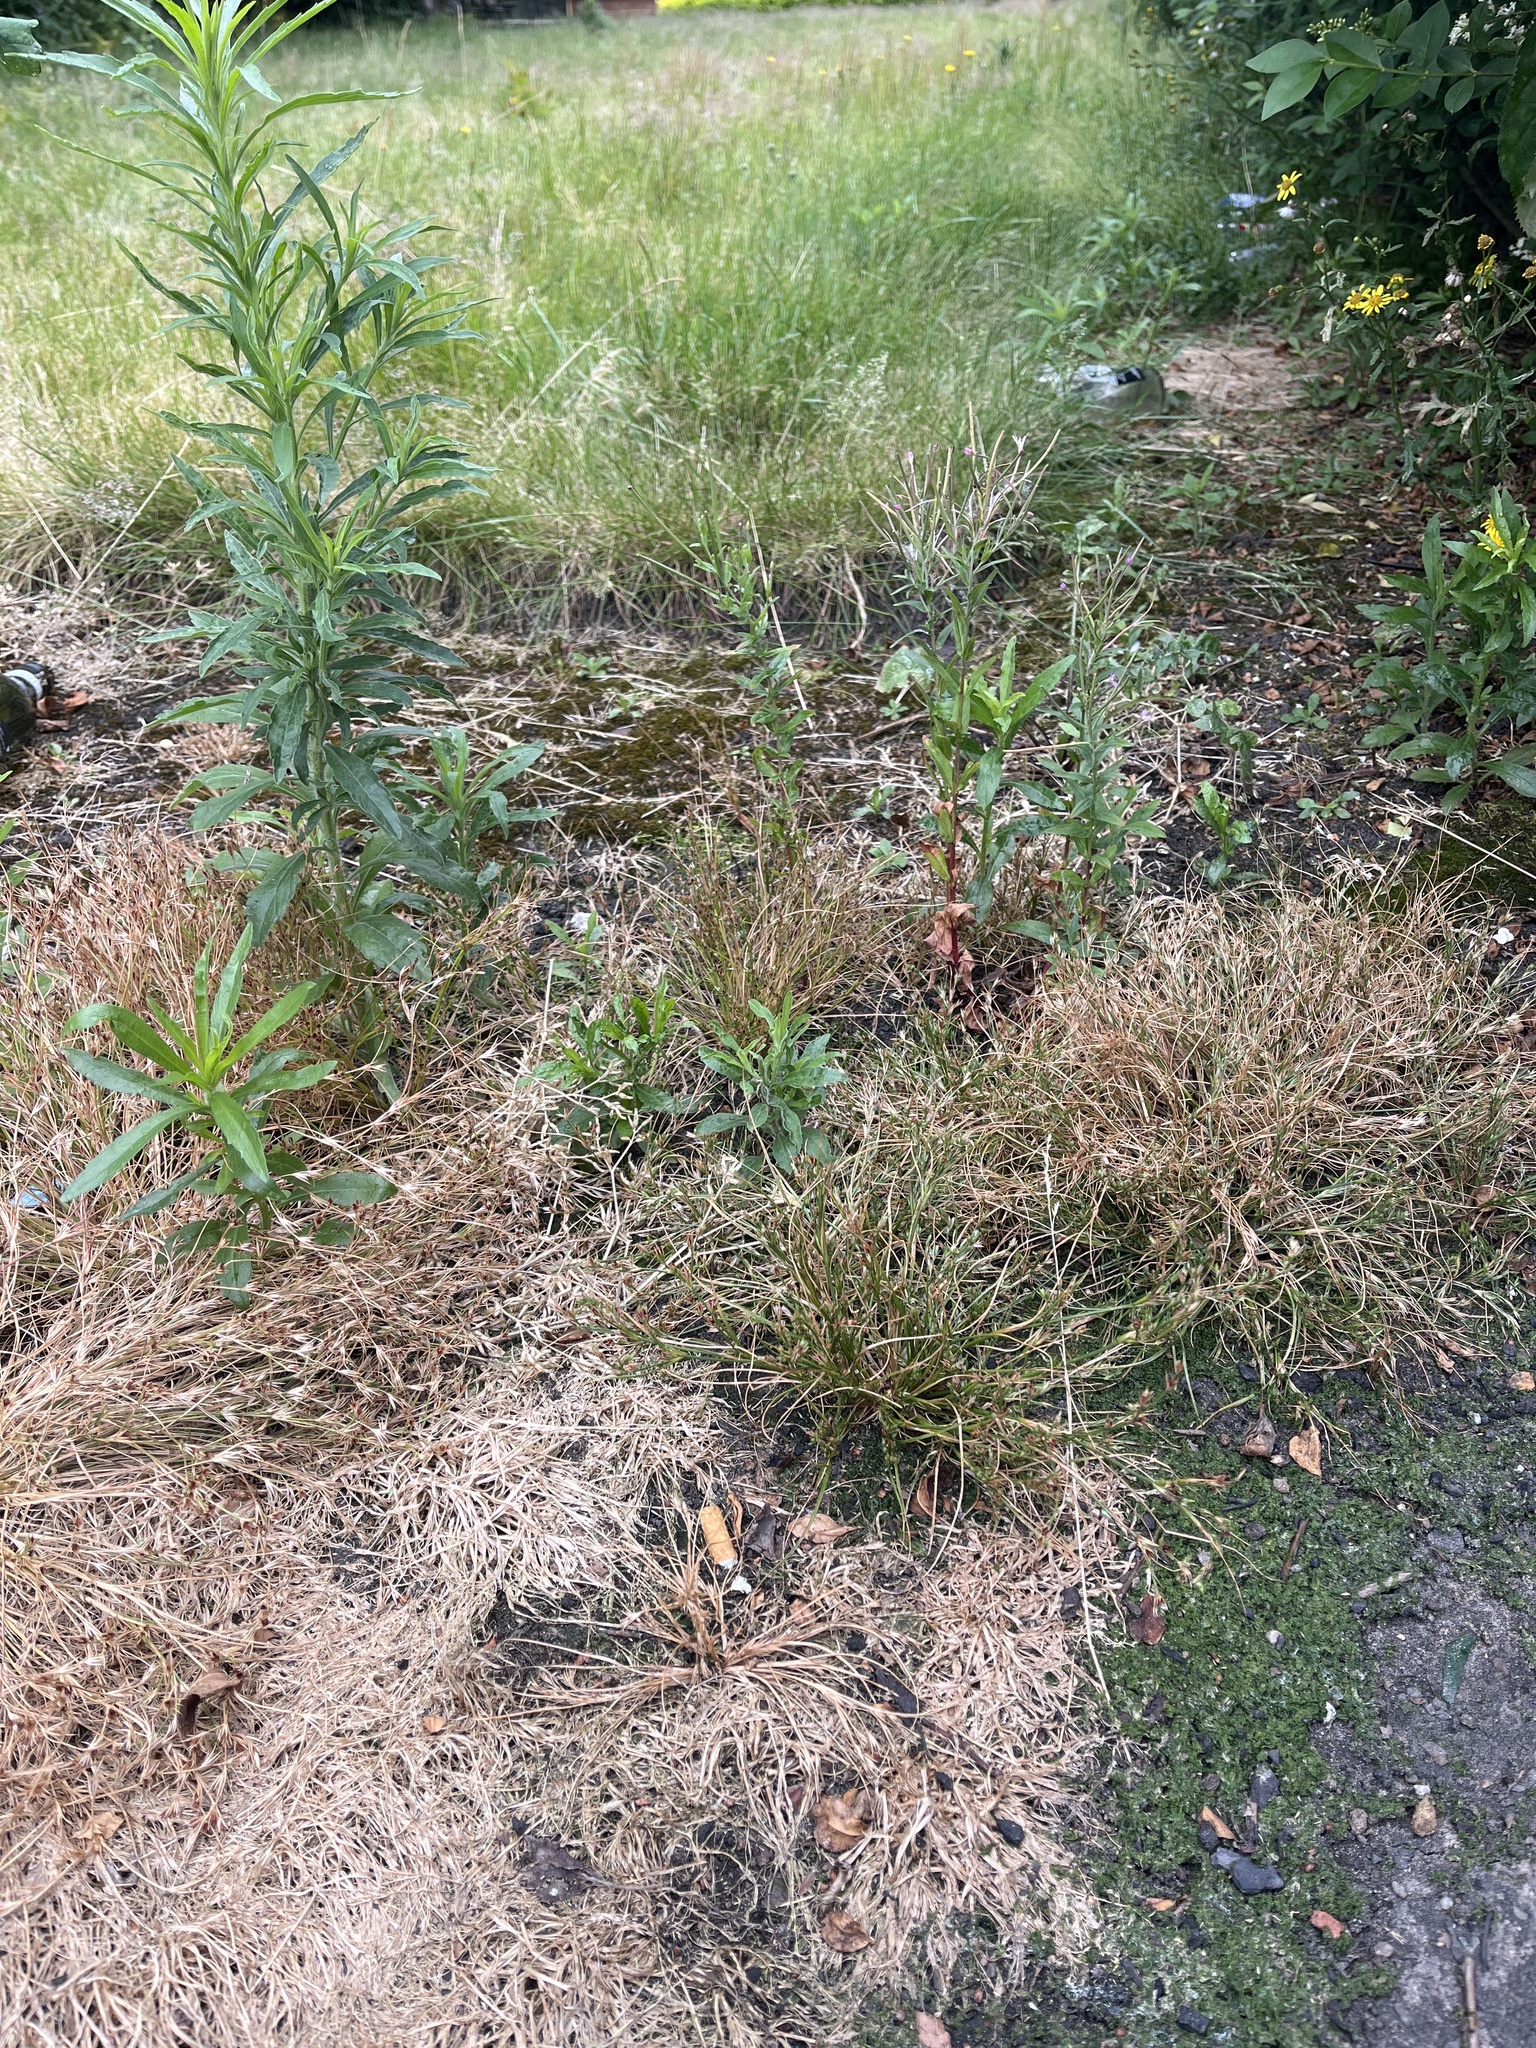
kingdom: Plantae
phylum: Tracheophyta
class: Liliopsida
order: Poales
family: Juncaceae
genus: Juncus
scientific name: Juncus bufonius
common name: Toad rush
